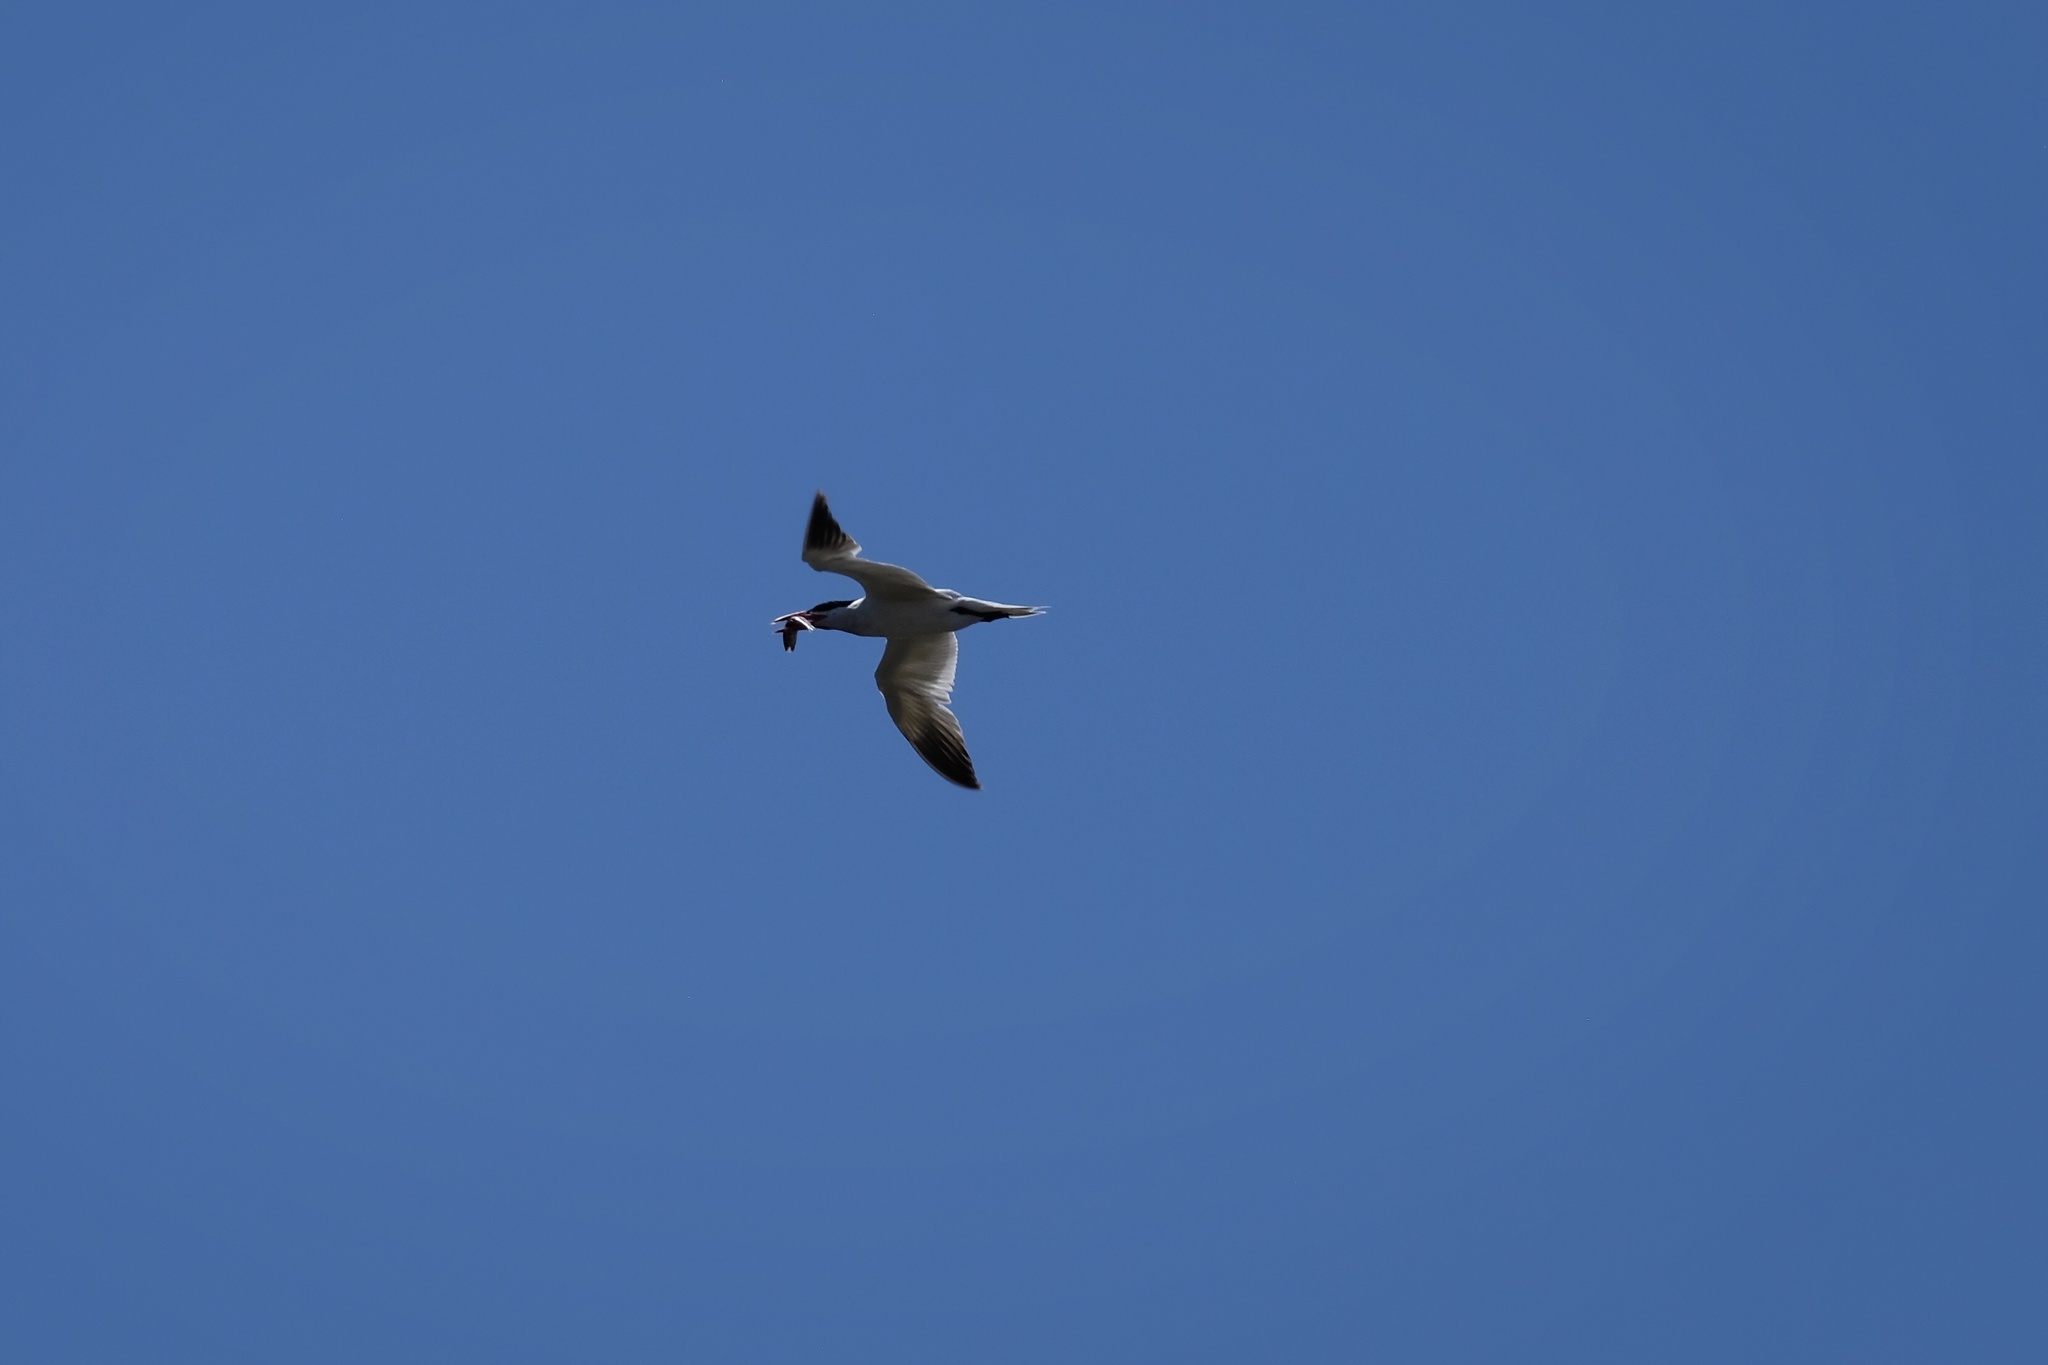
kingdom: Animalia
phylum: Chordata
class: Aves
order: Charadriiformes
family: Laridae
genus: Hydroprogne
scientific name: Hydroprogne caspia
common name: Caspian tern
